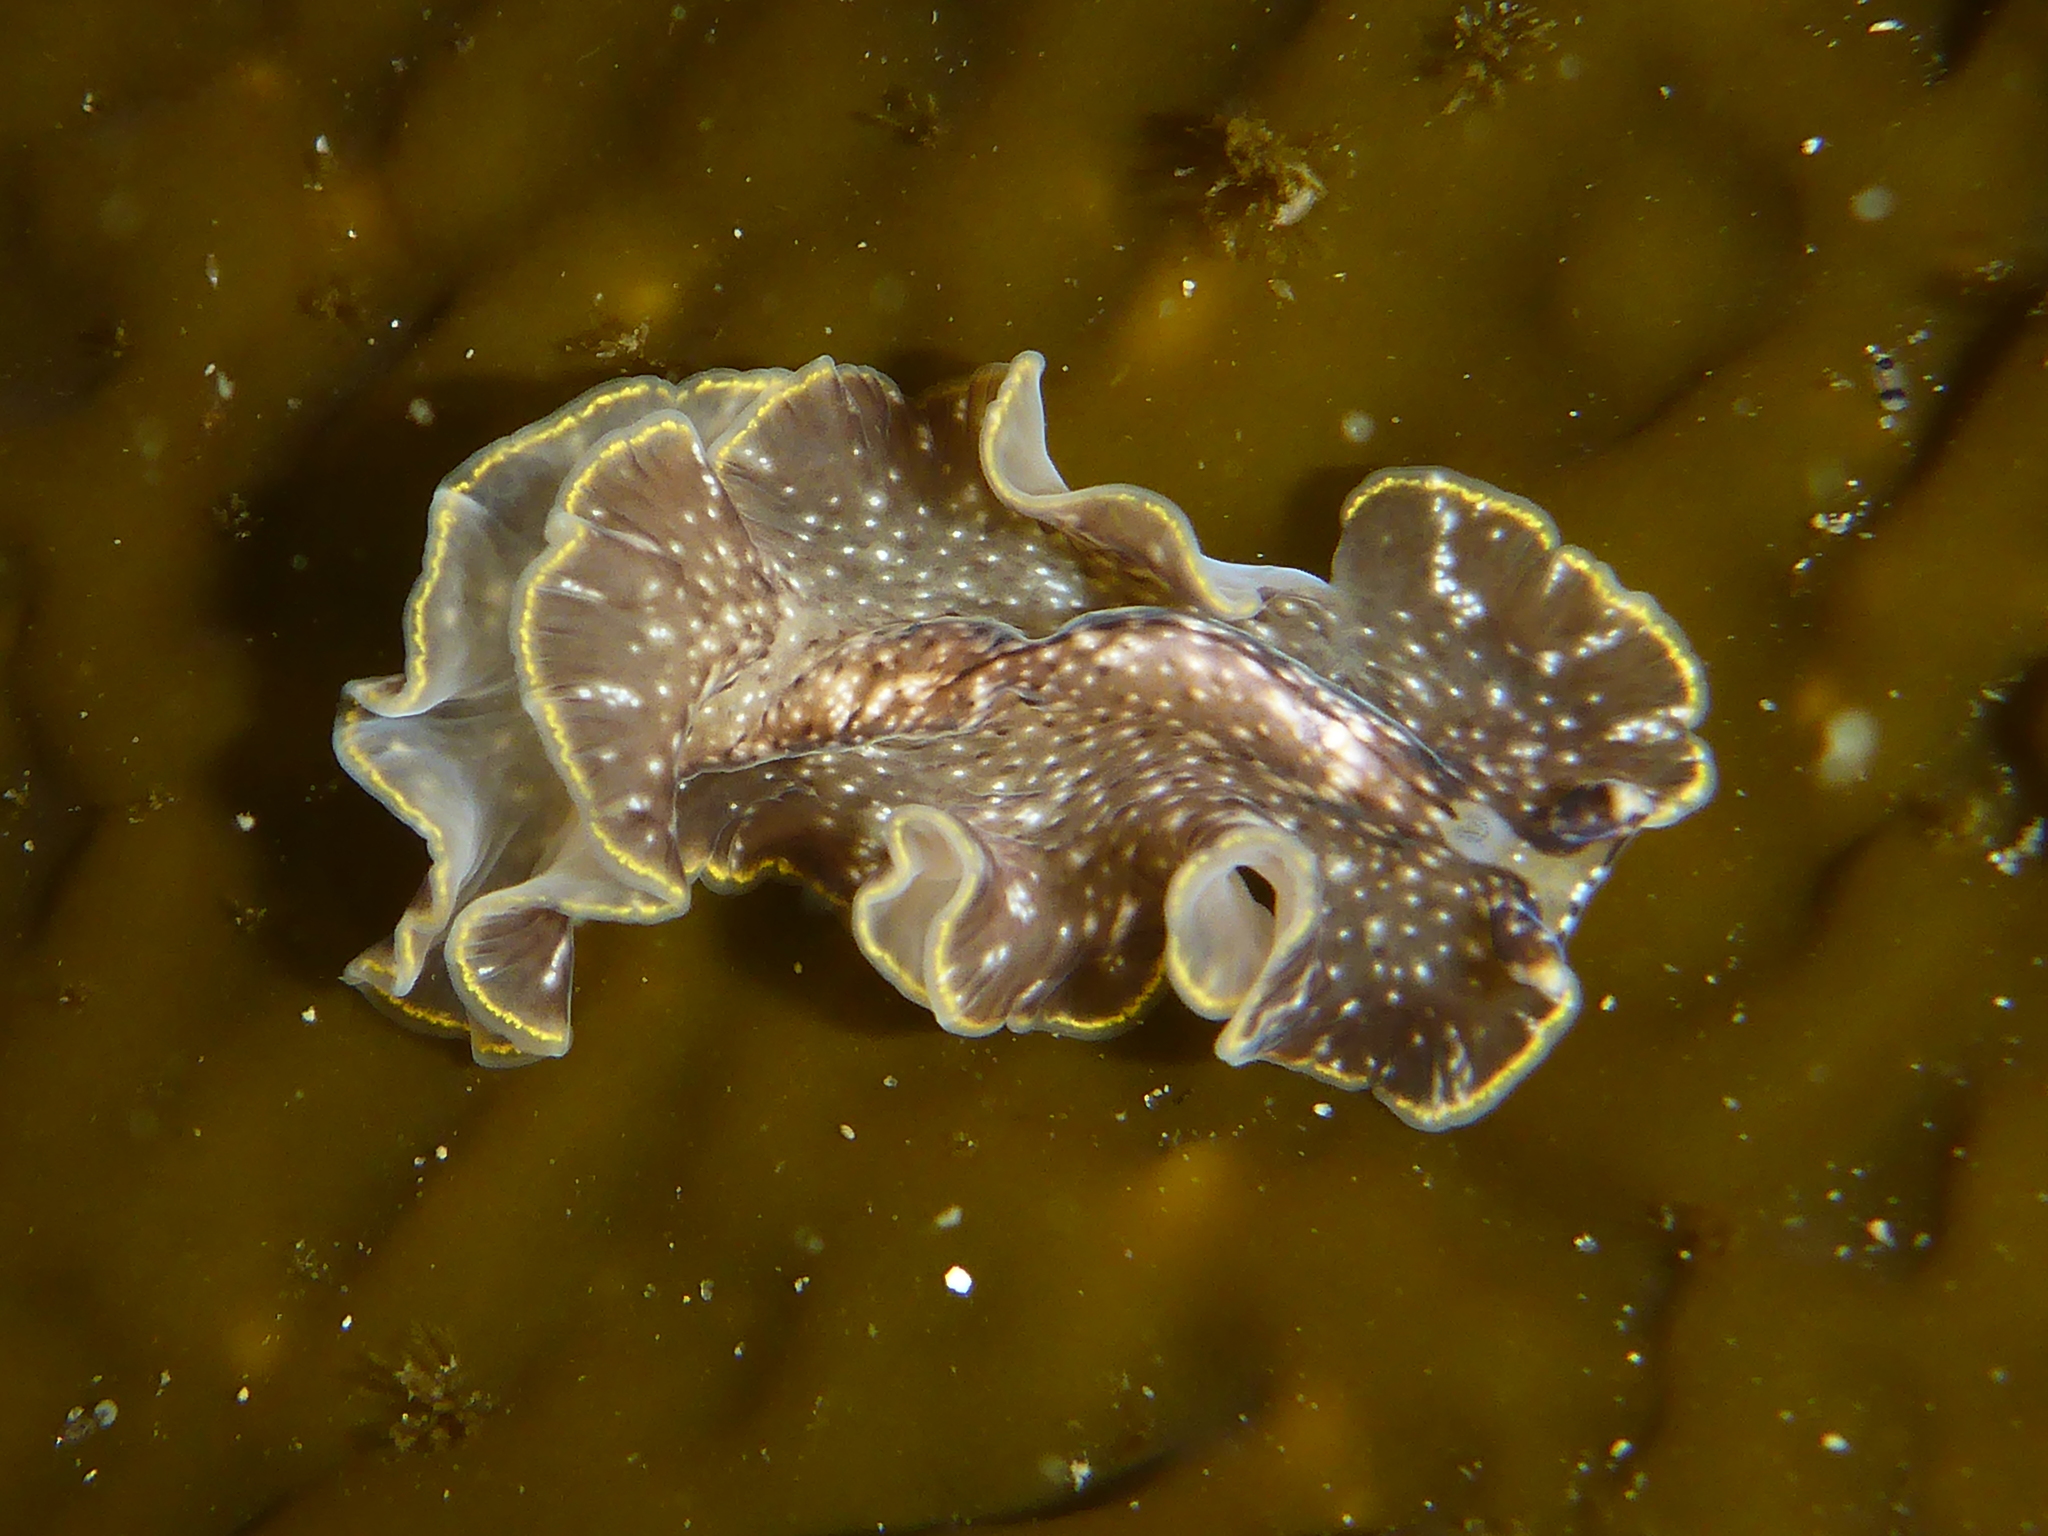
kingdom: Animalia
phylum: Platyhelminthes
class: Turbellaria
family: Pseudocerotidae
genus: Pseudoceros
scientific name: Pseudoceros mexicanus
